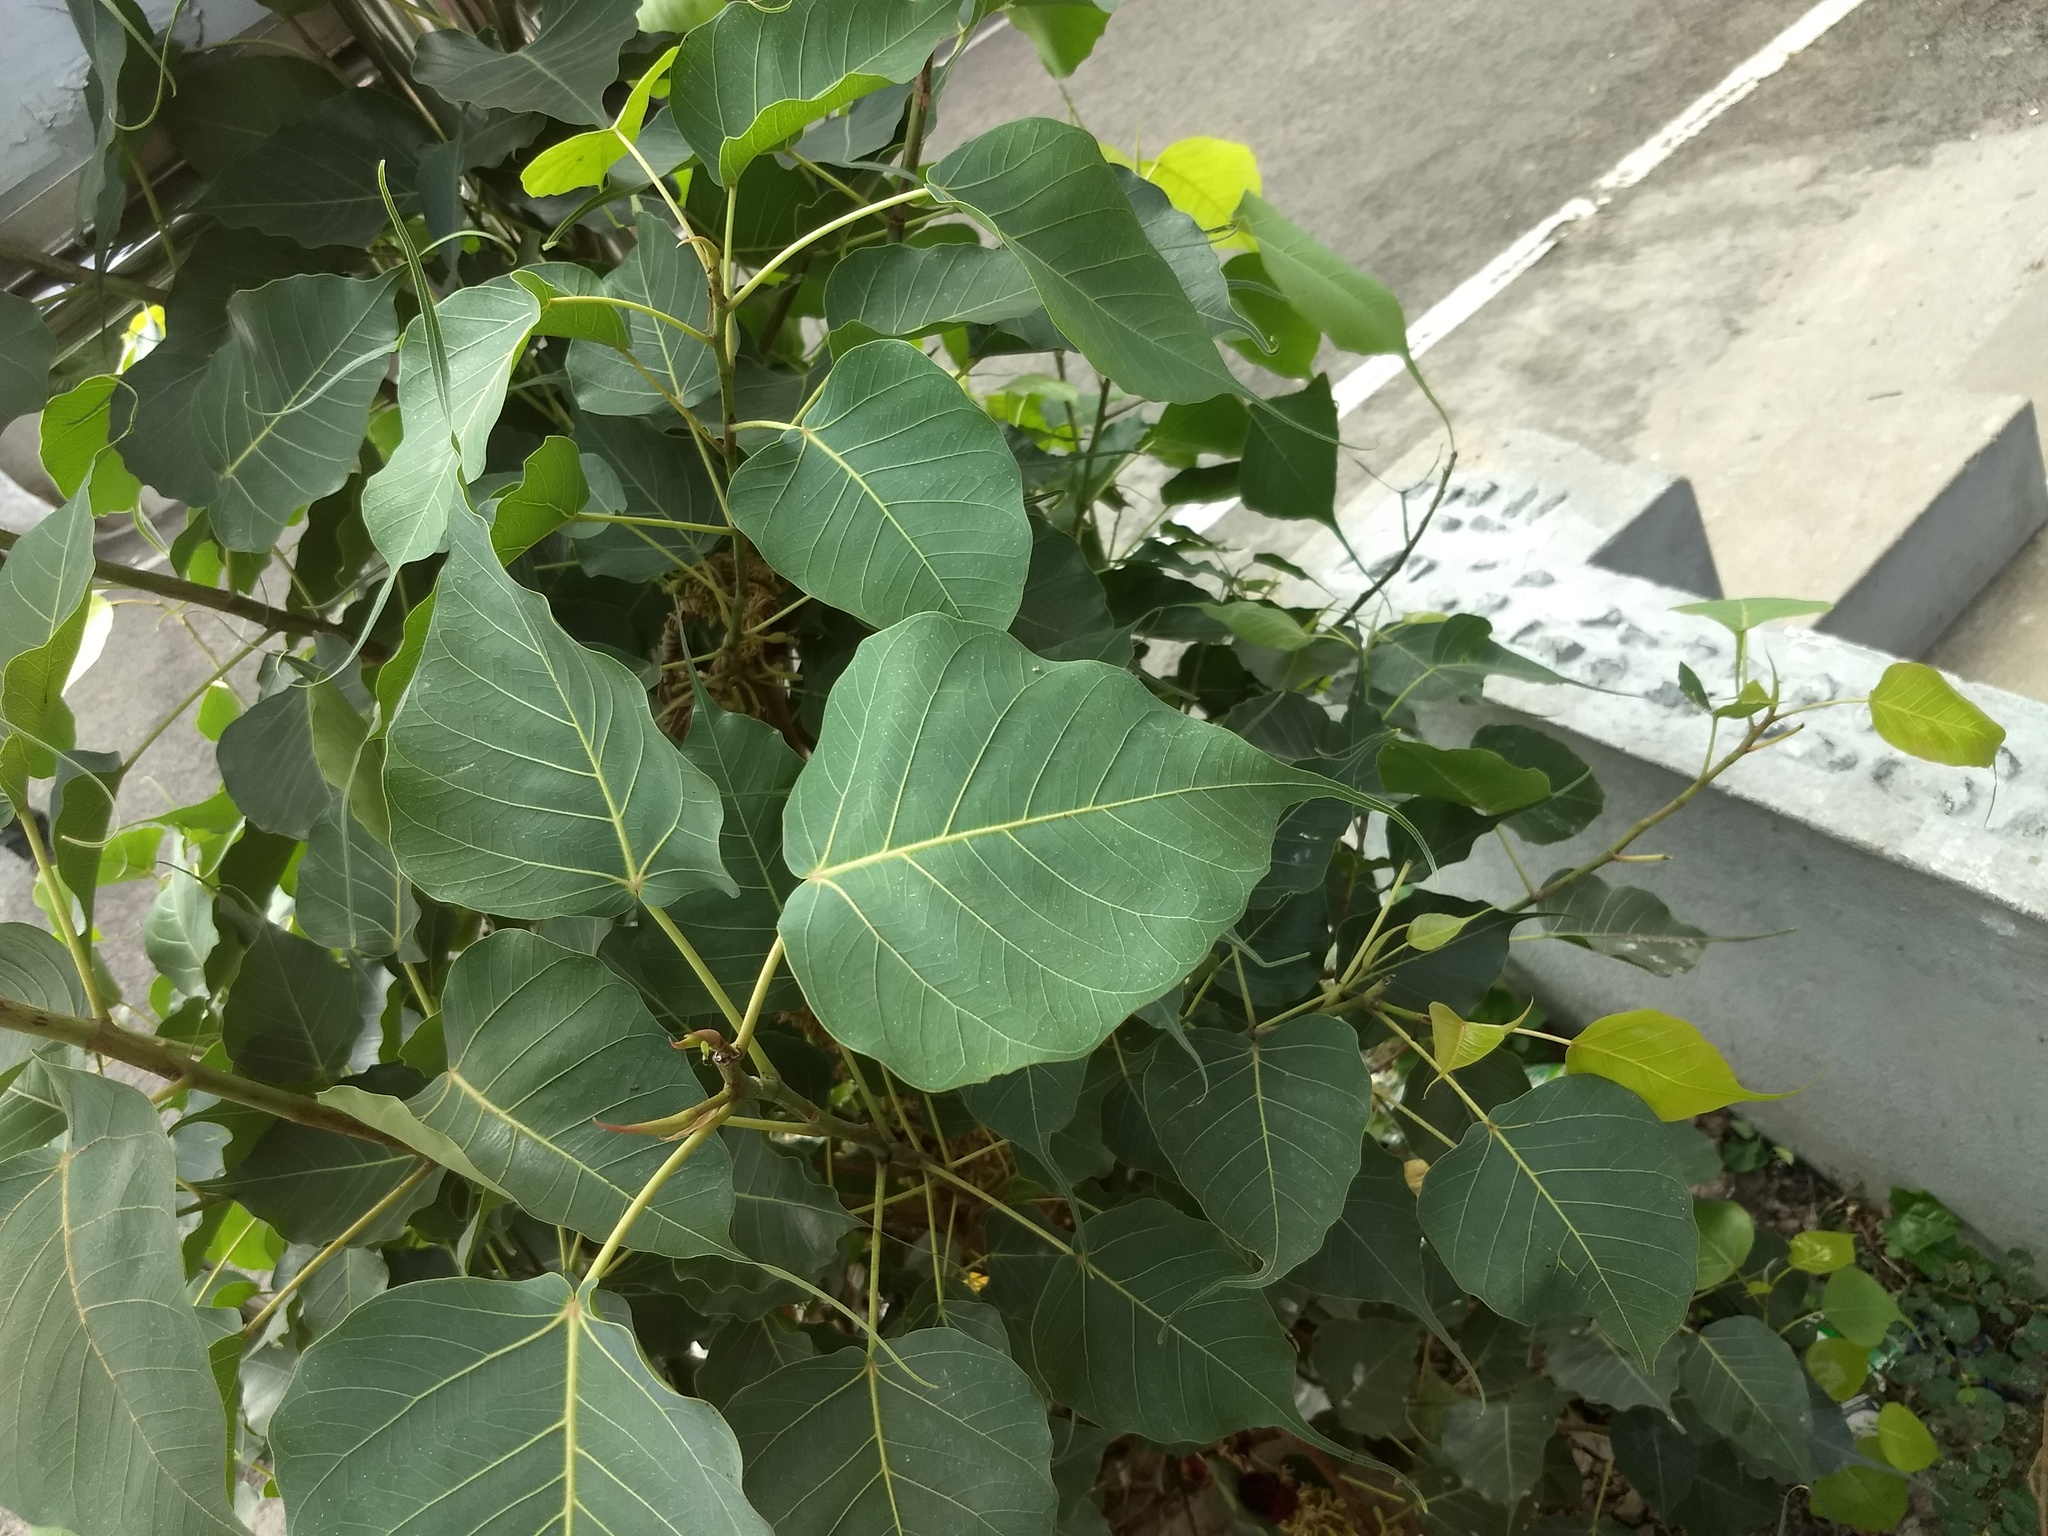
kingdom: Plantae
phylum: Tracheophyta
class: Magnoliopsida
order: Rosales
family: Moraceae
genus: Ficus
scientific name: Ficus religiosa
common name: Bodhi tree
